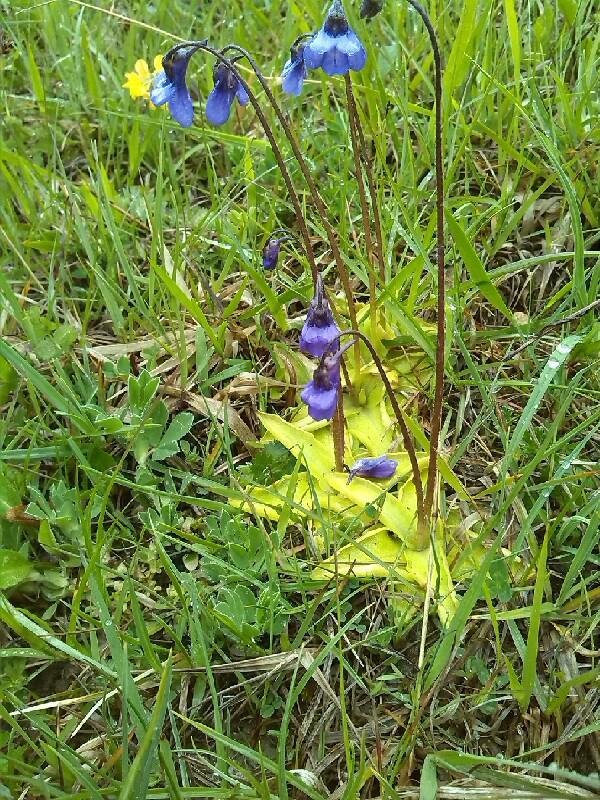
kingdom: Plantae
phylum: Tracheophyta
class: Magnoliopsida
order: Lamiales
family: Lentibulariaceae
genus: Pinguicula
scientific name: Pinguicula vulgaris
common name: Common butterwort
